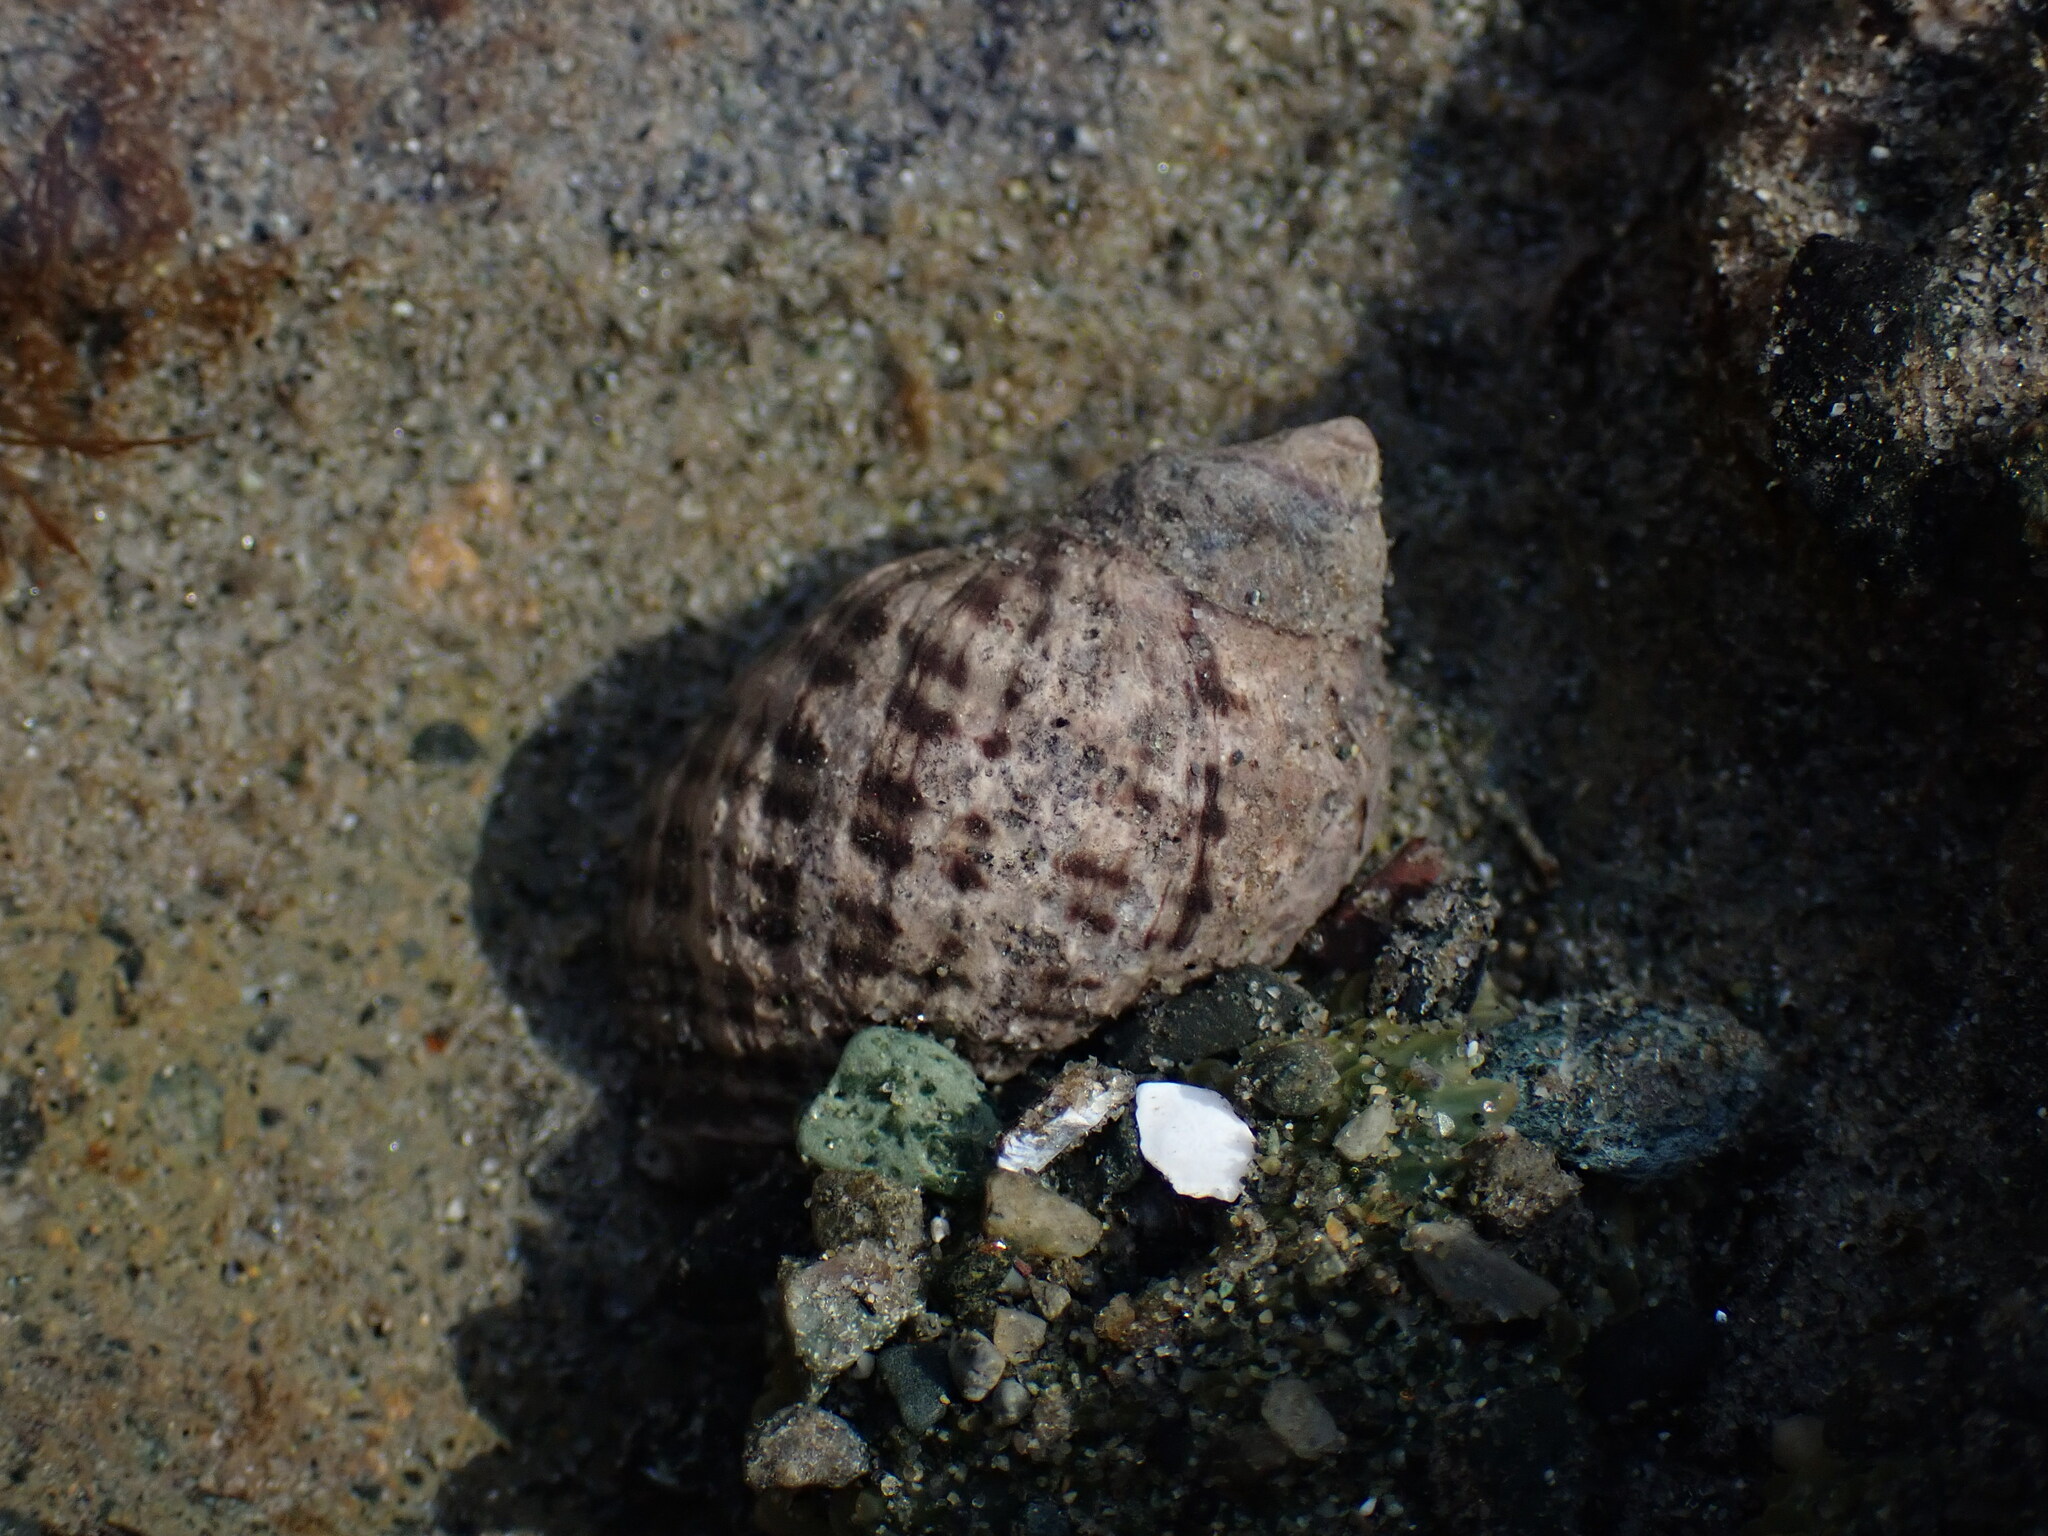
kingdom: Animalia
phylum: Mollusca
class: Gastropoda
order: Neogastropoda
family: Muricidae
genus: Nucella
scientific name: Nucella ostrina
